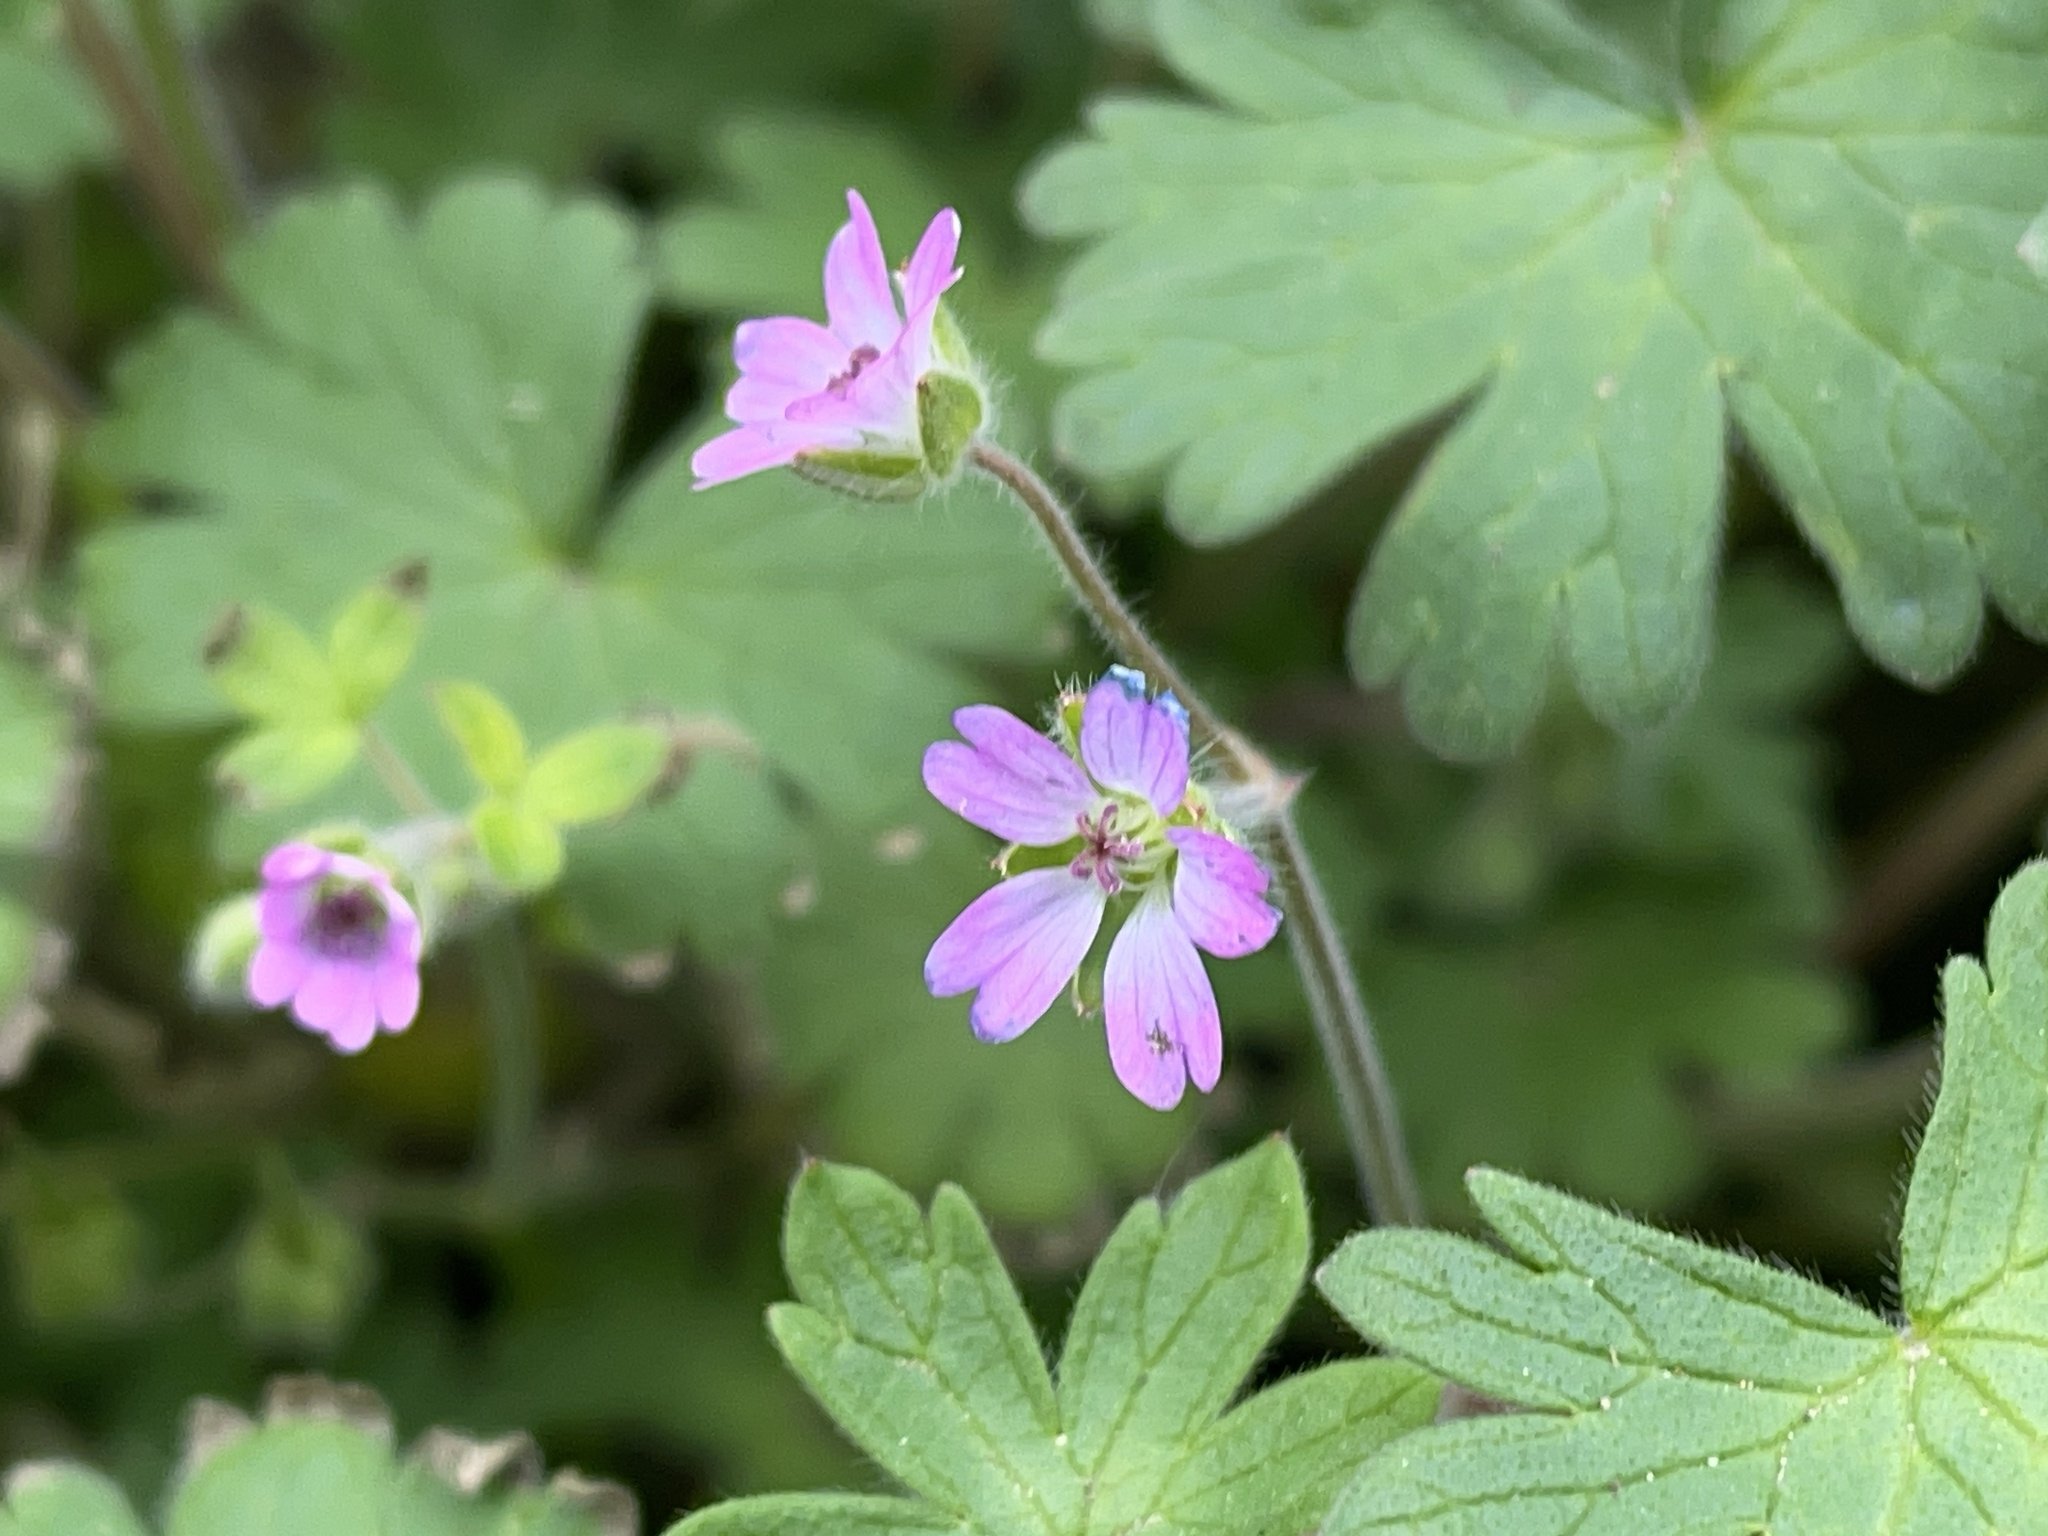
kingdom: Plantae
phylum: Tracheophyta
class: Magnoliopsida
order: Geraniales
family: Geraniaceae
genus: Geranium
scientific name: Geranium molle
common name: Dove's-foot crane's-bill
